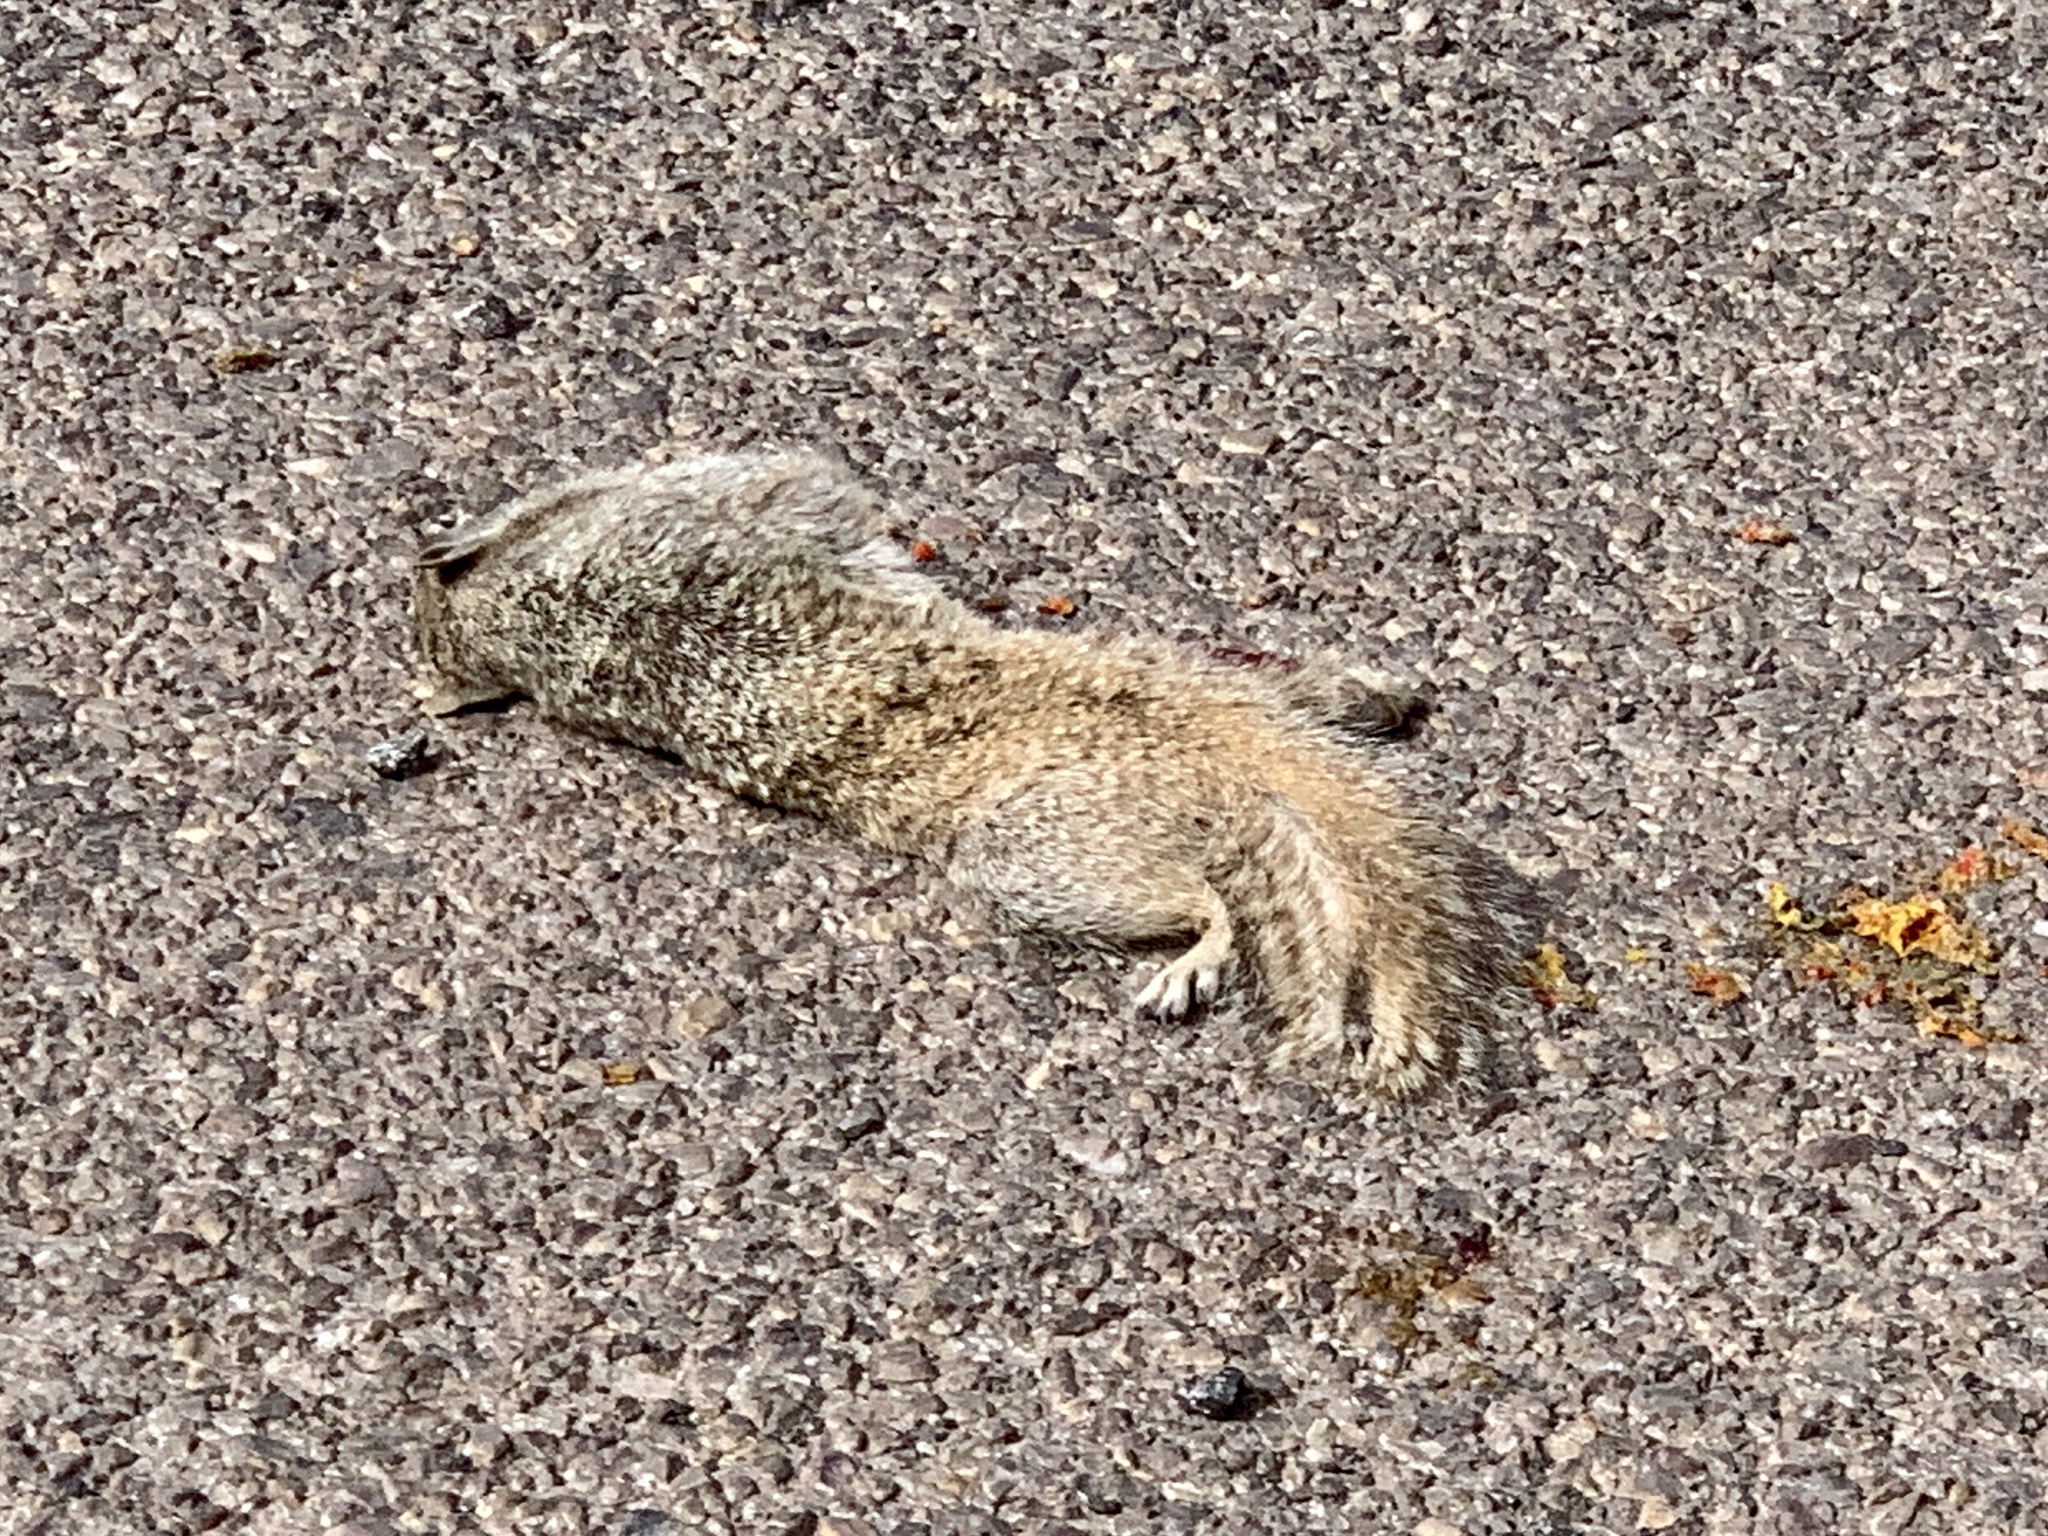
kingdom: Animalia
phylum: Chordata
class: Mammalia
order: Rodentia
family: Sciuridae
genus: Otospermophilus
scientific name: Otospermophilus variegatus
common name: Rock squirrel
